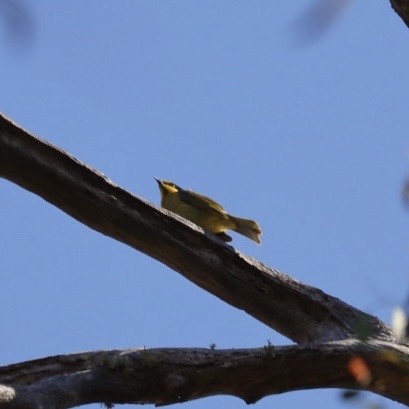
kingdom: Animalia
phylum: Chordata
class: Aves
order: Passeriformes
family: Meliphagidae
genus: Lichenostomus
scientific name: Lichenostomus melanops
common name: Yellow-tufted honeyeater
